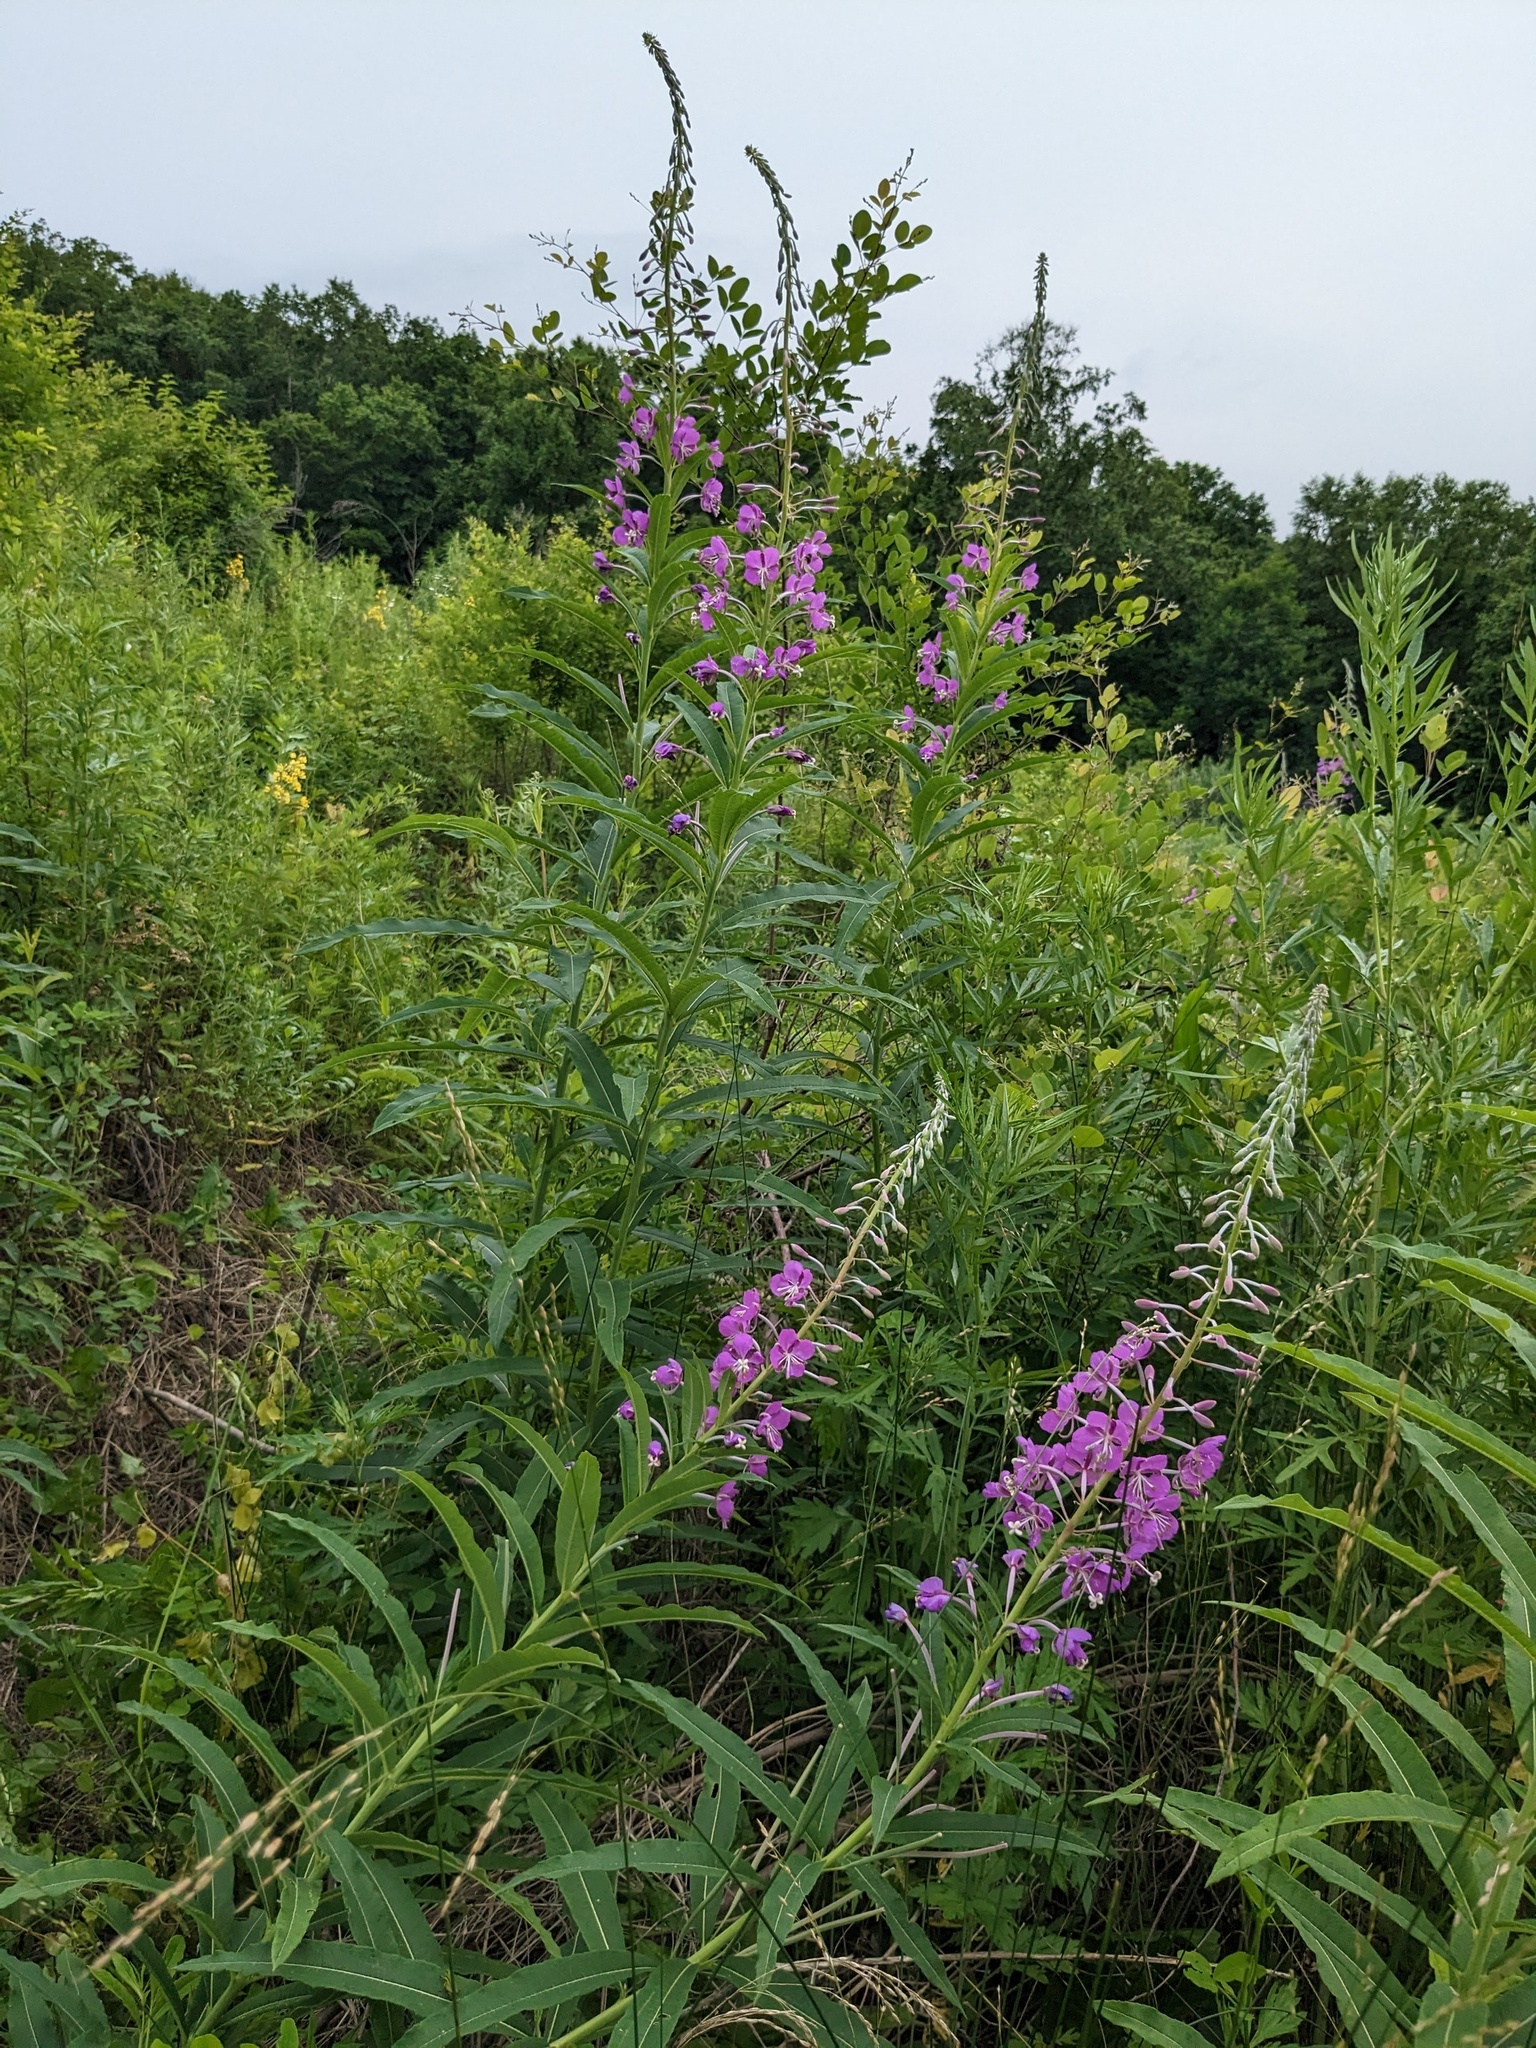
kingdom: Plantae
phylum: Tracheophyta
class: Magnoliopsida
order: Myrtales
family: Onagraceae
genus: Chamaenerion
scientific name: Chamaenerion angustifolium
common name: Fireweed
